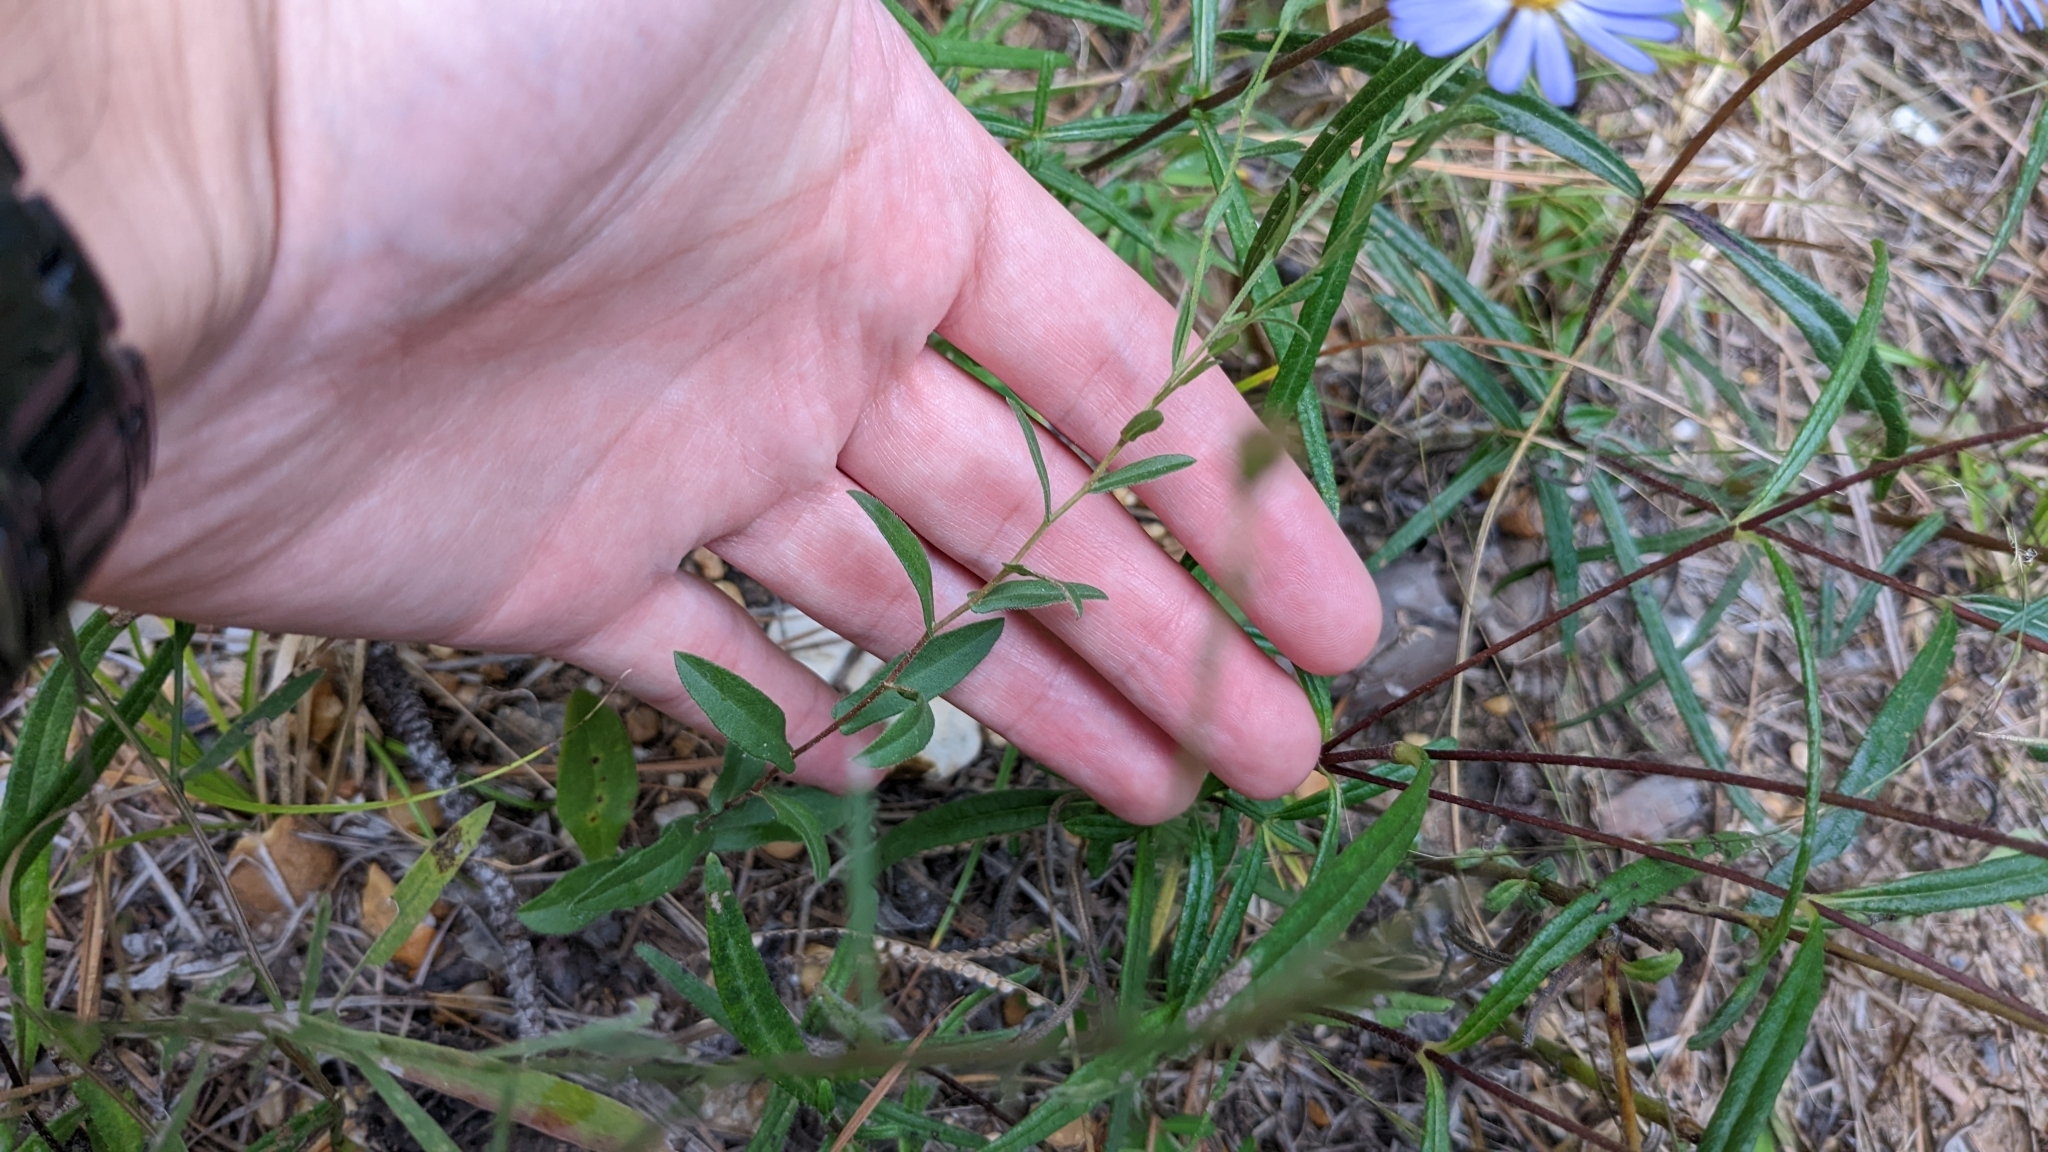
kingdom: Plantae
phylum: Tracheophyta
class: Magnoliopsida
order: Asterales
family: Asteraceae
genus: Symphyotrichum
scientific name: Symphyotrichum patens
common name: Late purple aster
